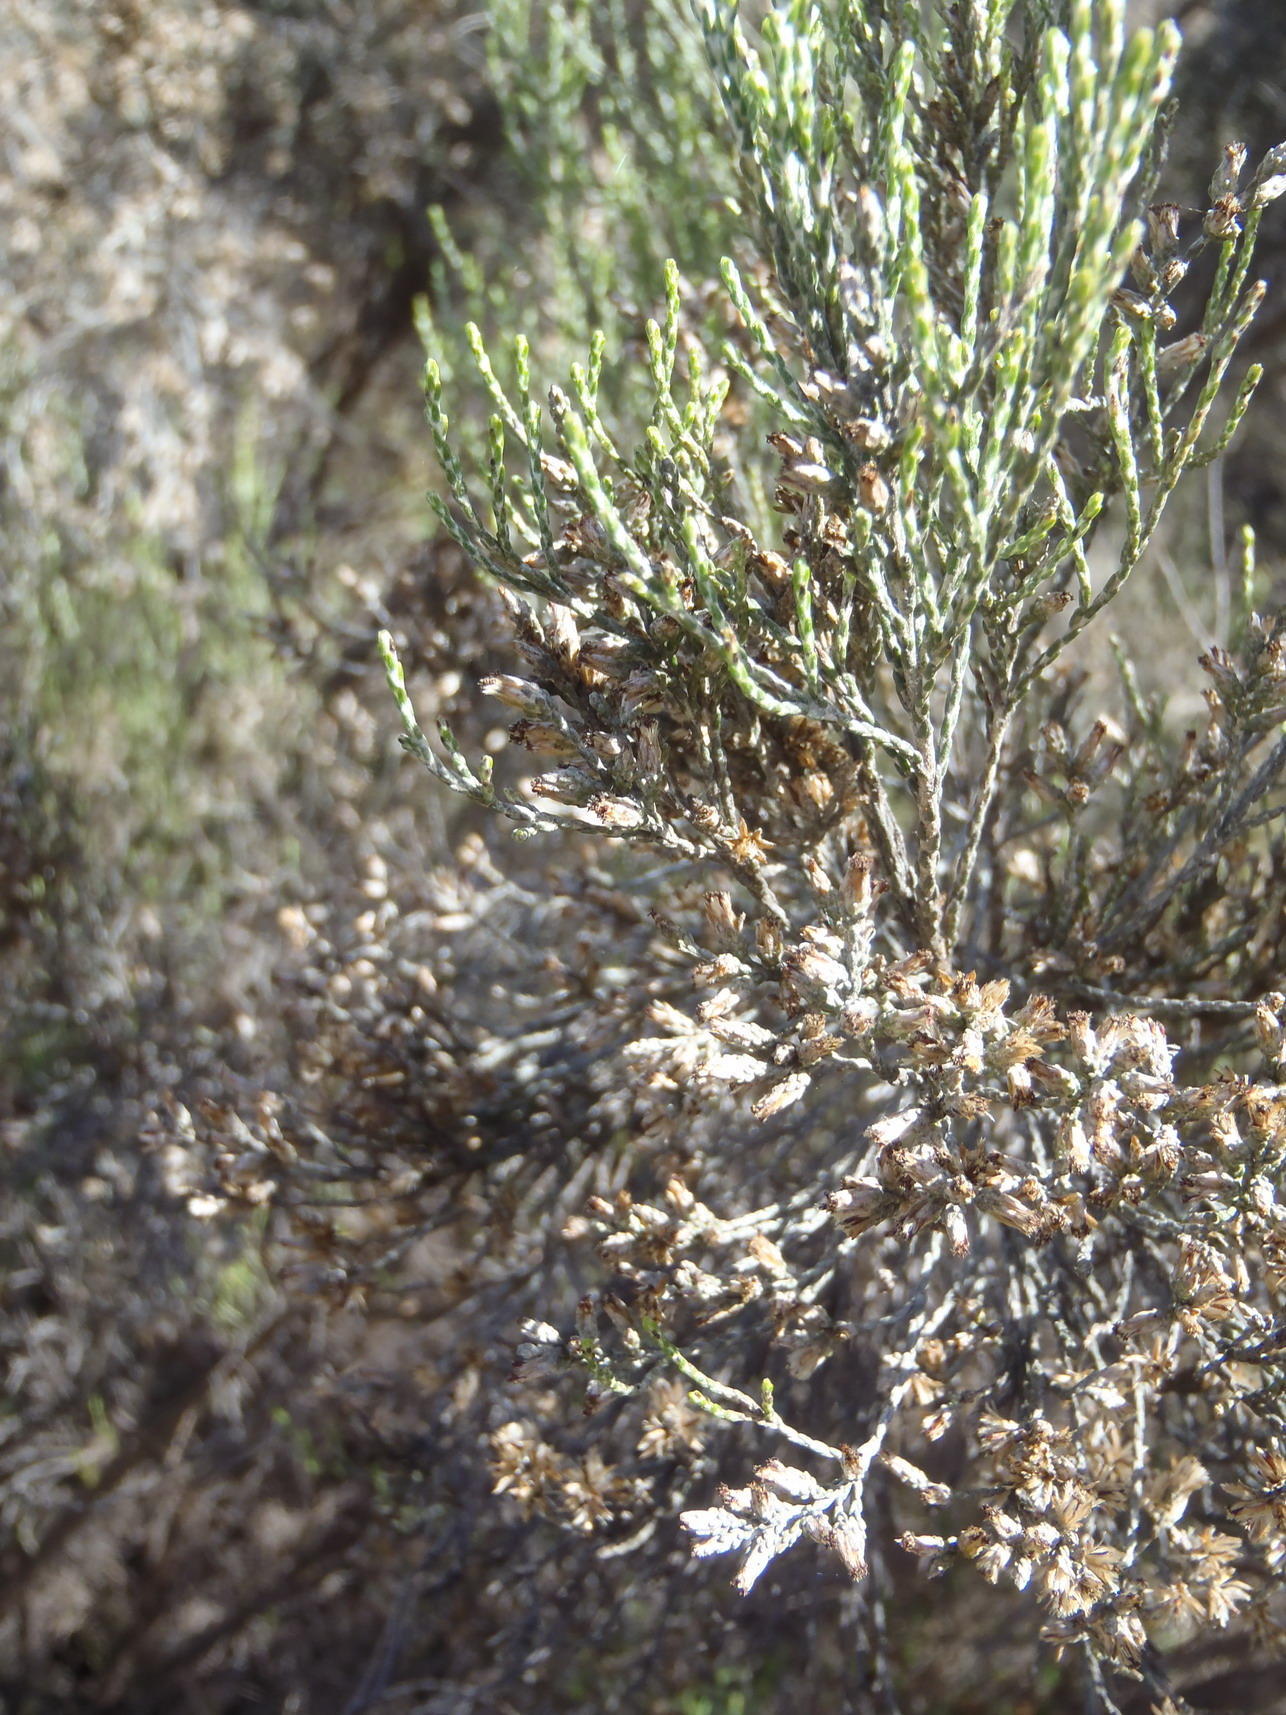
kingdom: Plantae
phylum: Tracheophyta
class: Magnoliopsida
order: Asterales
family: Asteraceae
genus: Dicerothamnus
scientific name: Dicerothamnus rhinocerotis
